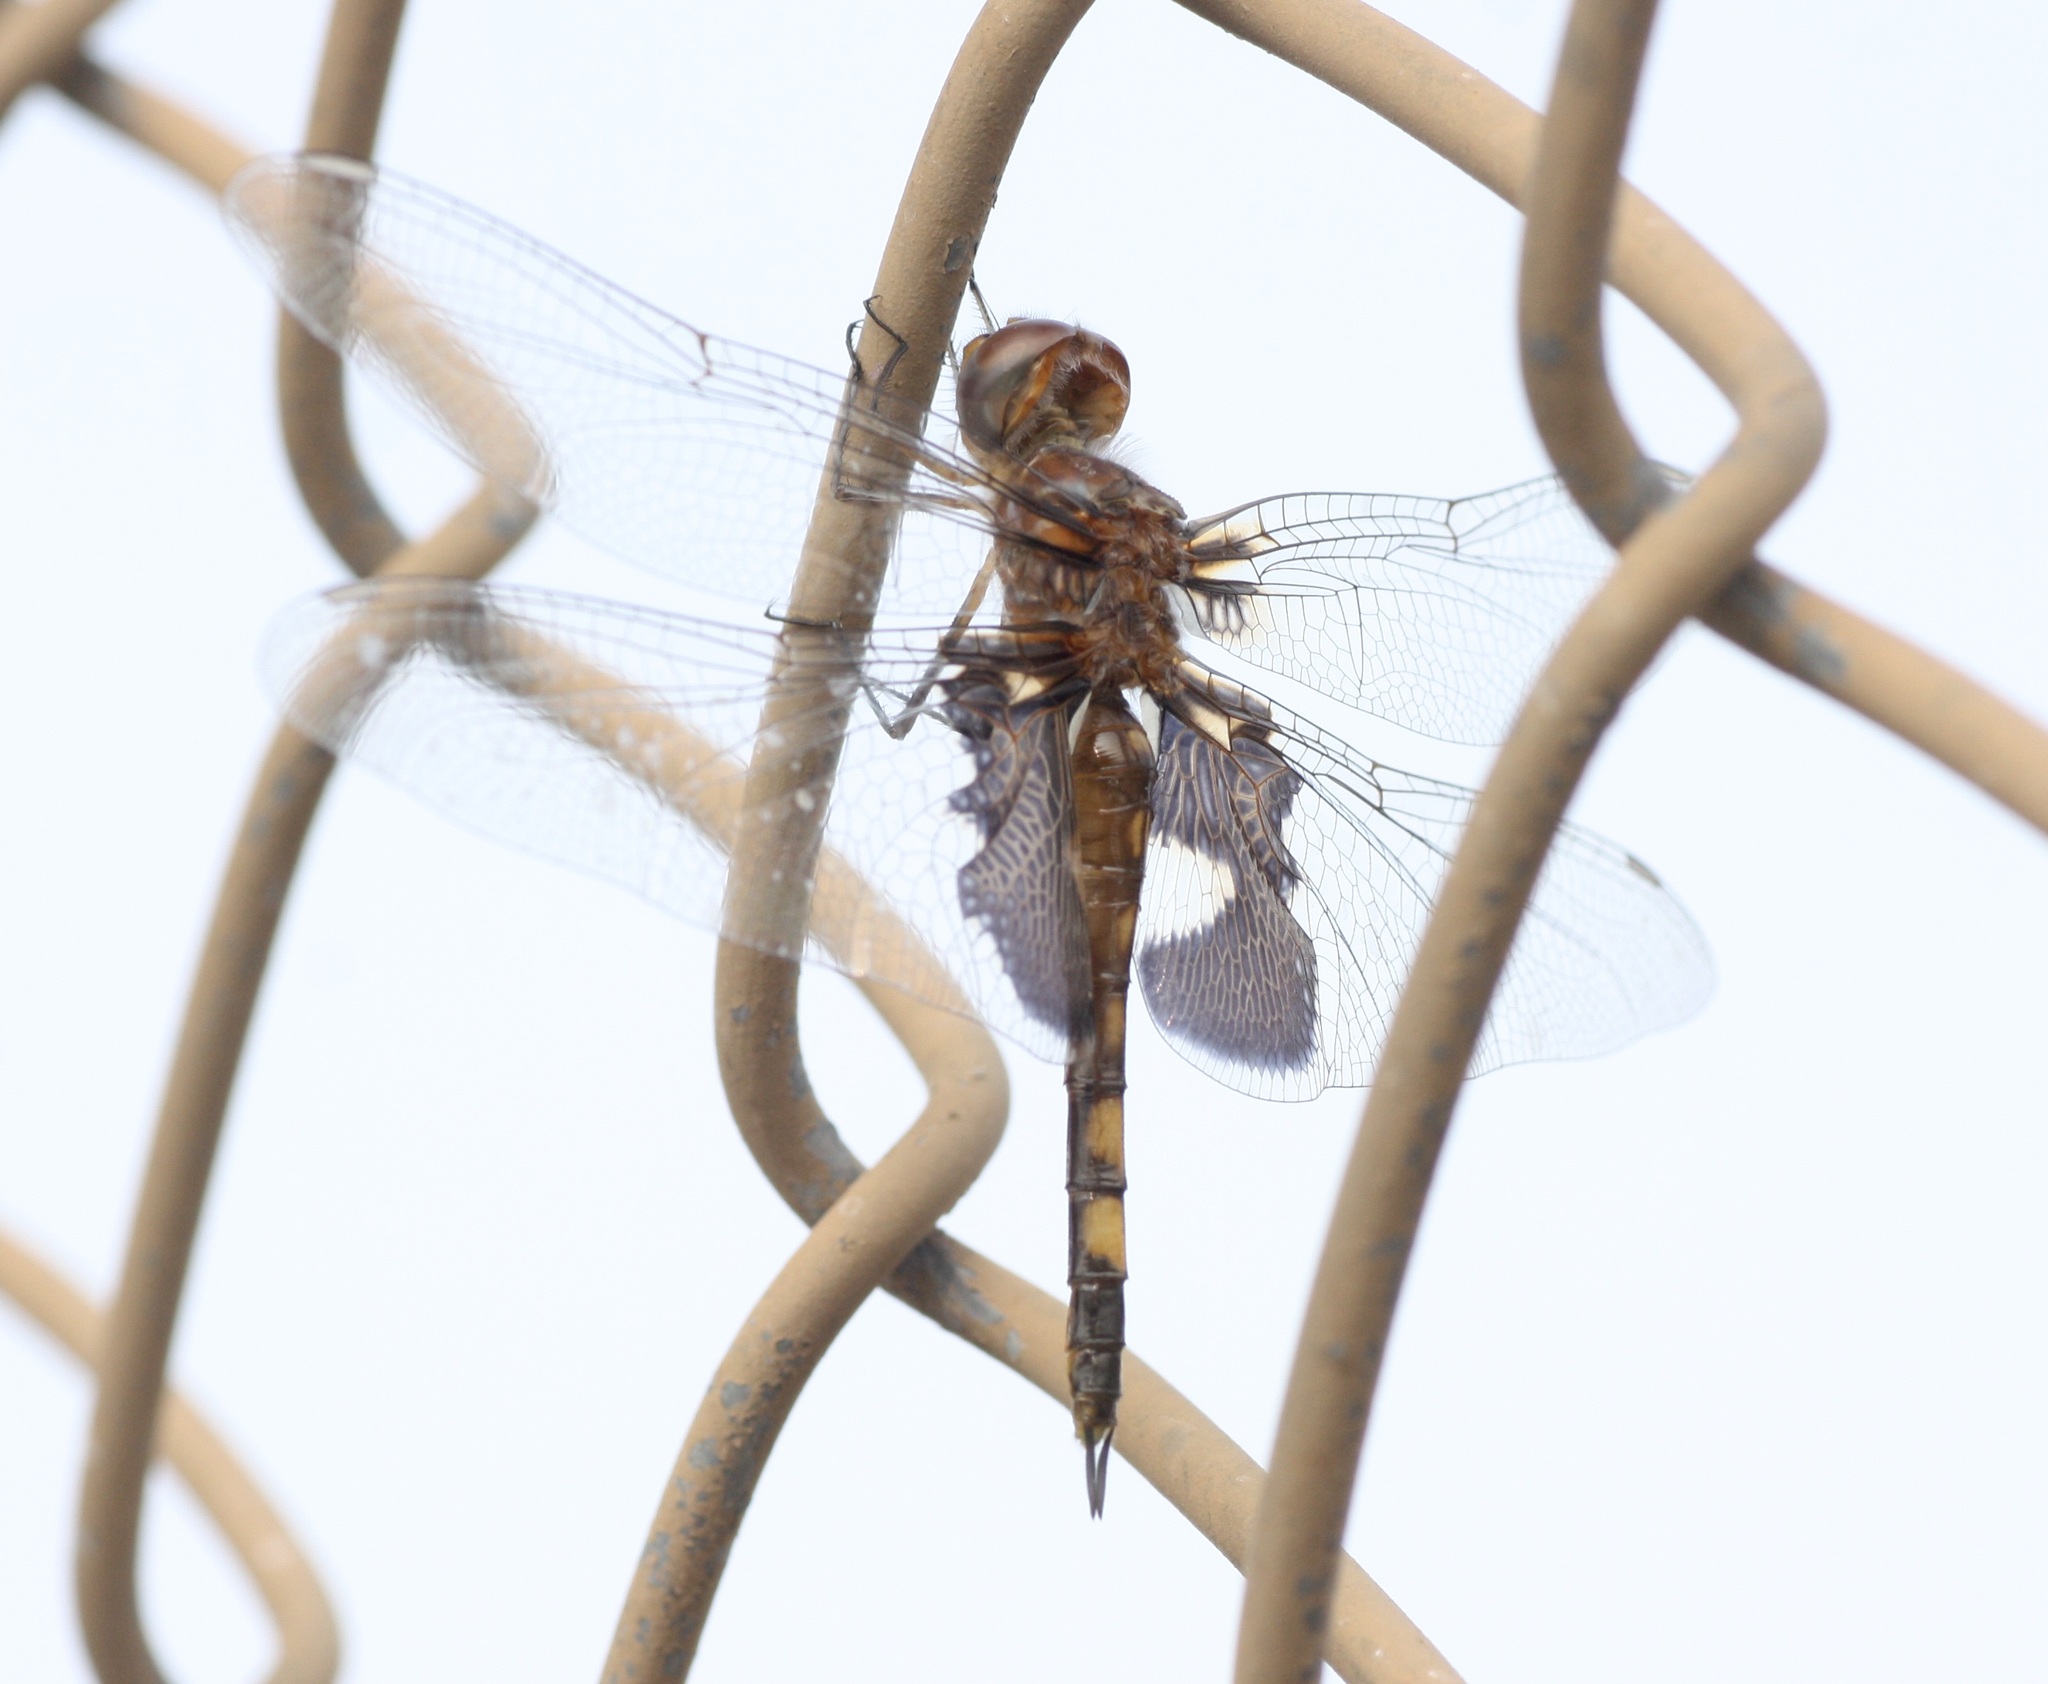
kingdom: Animalia
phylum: Arthropoda
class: Insecta
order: Odonata
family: Libellulidae
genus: Tramea
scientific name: Tramea lacerata
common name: Black saddlebags
